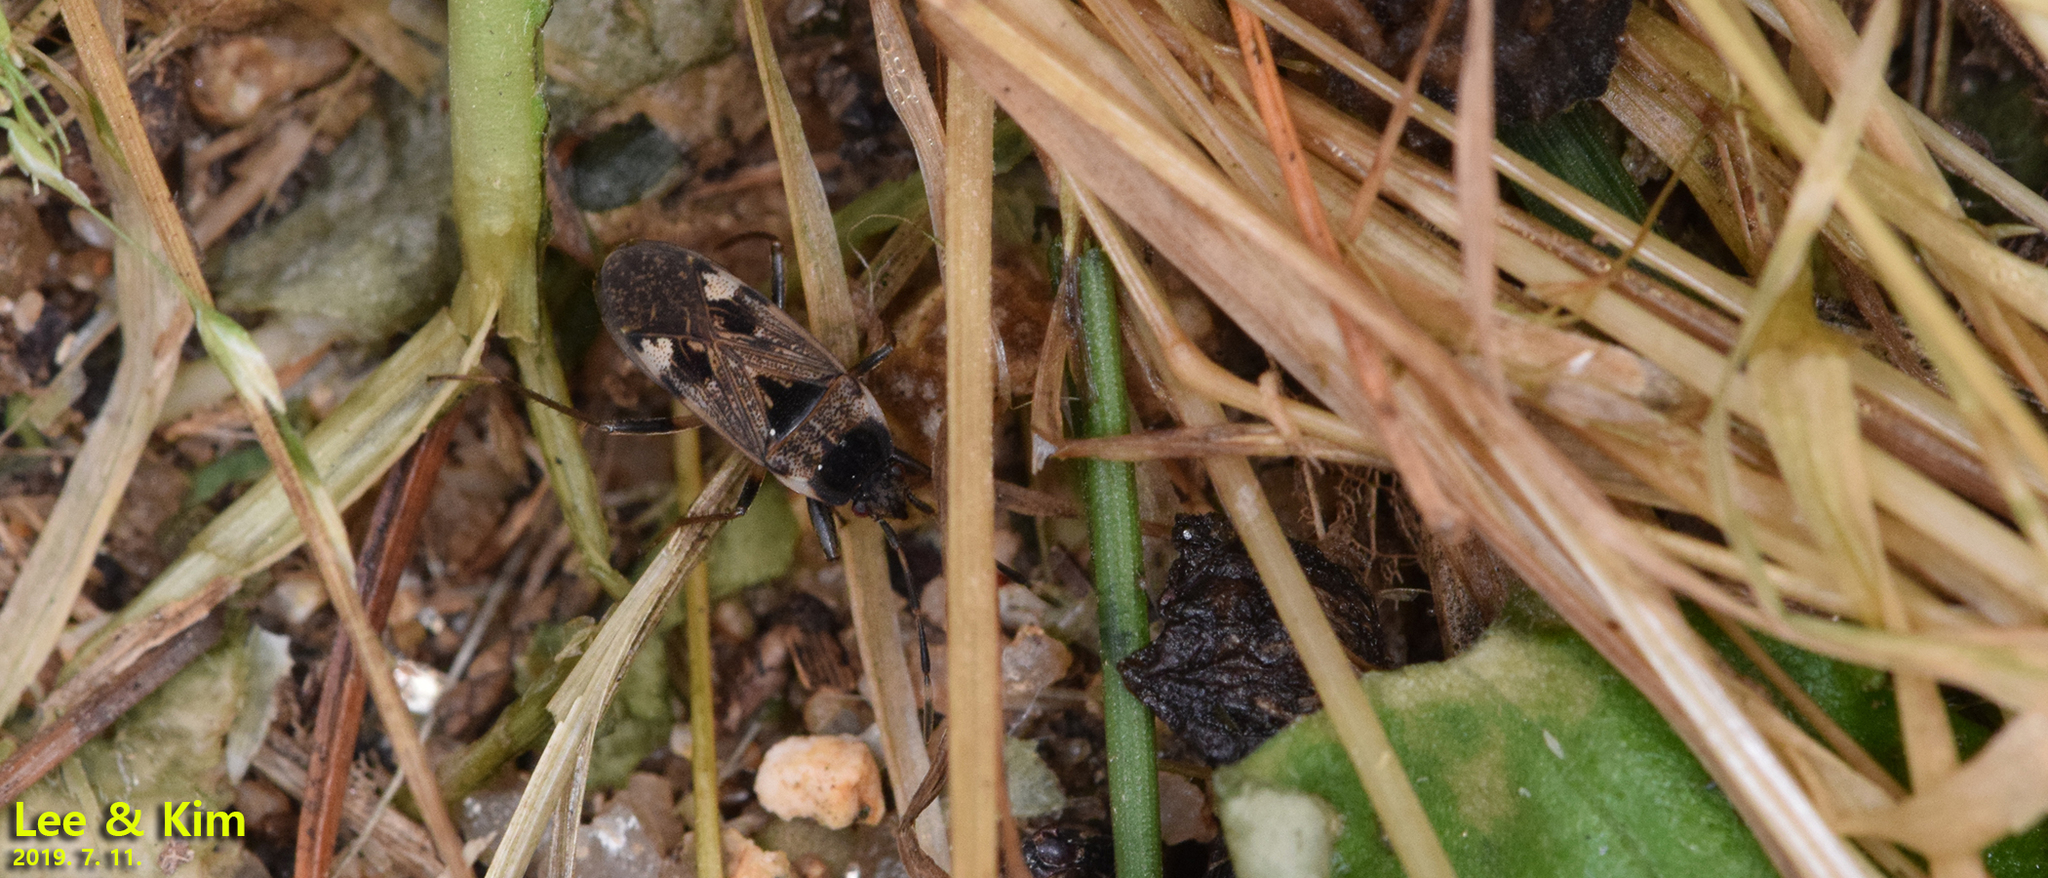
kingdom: Animalia
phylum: Arthropoda
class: Insecta
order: Hemiptera
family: Rhyparochromidae
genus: Panaorus
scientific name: Panaorus csikii
